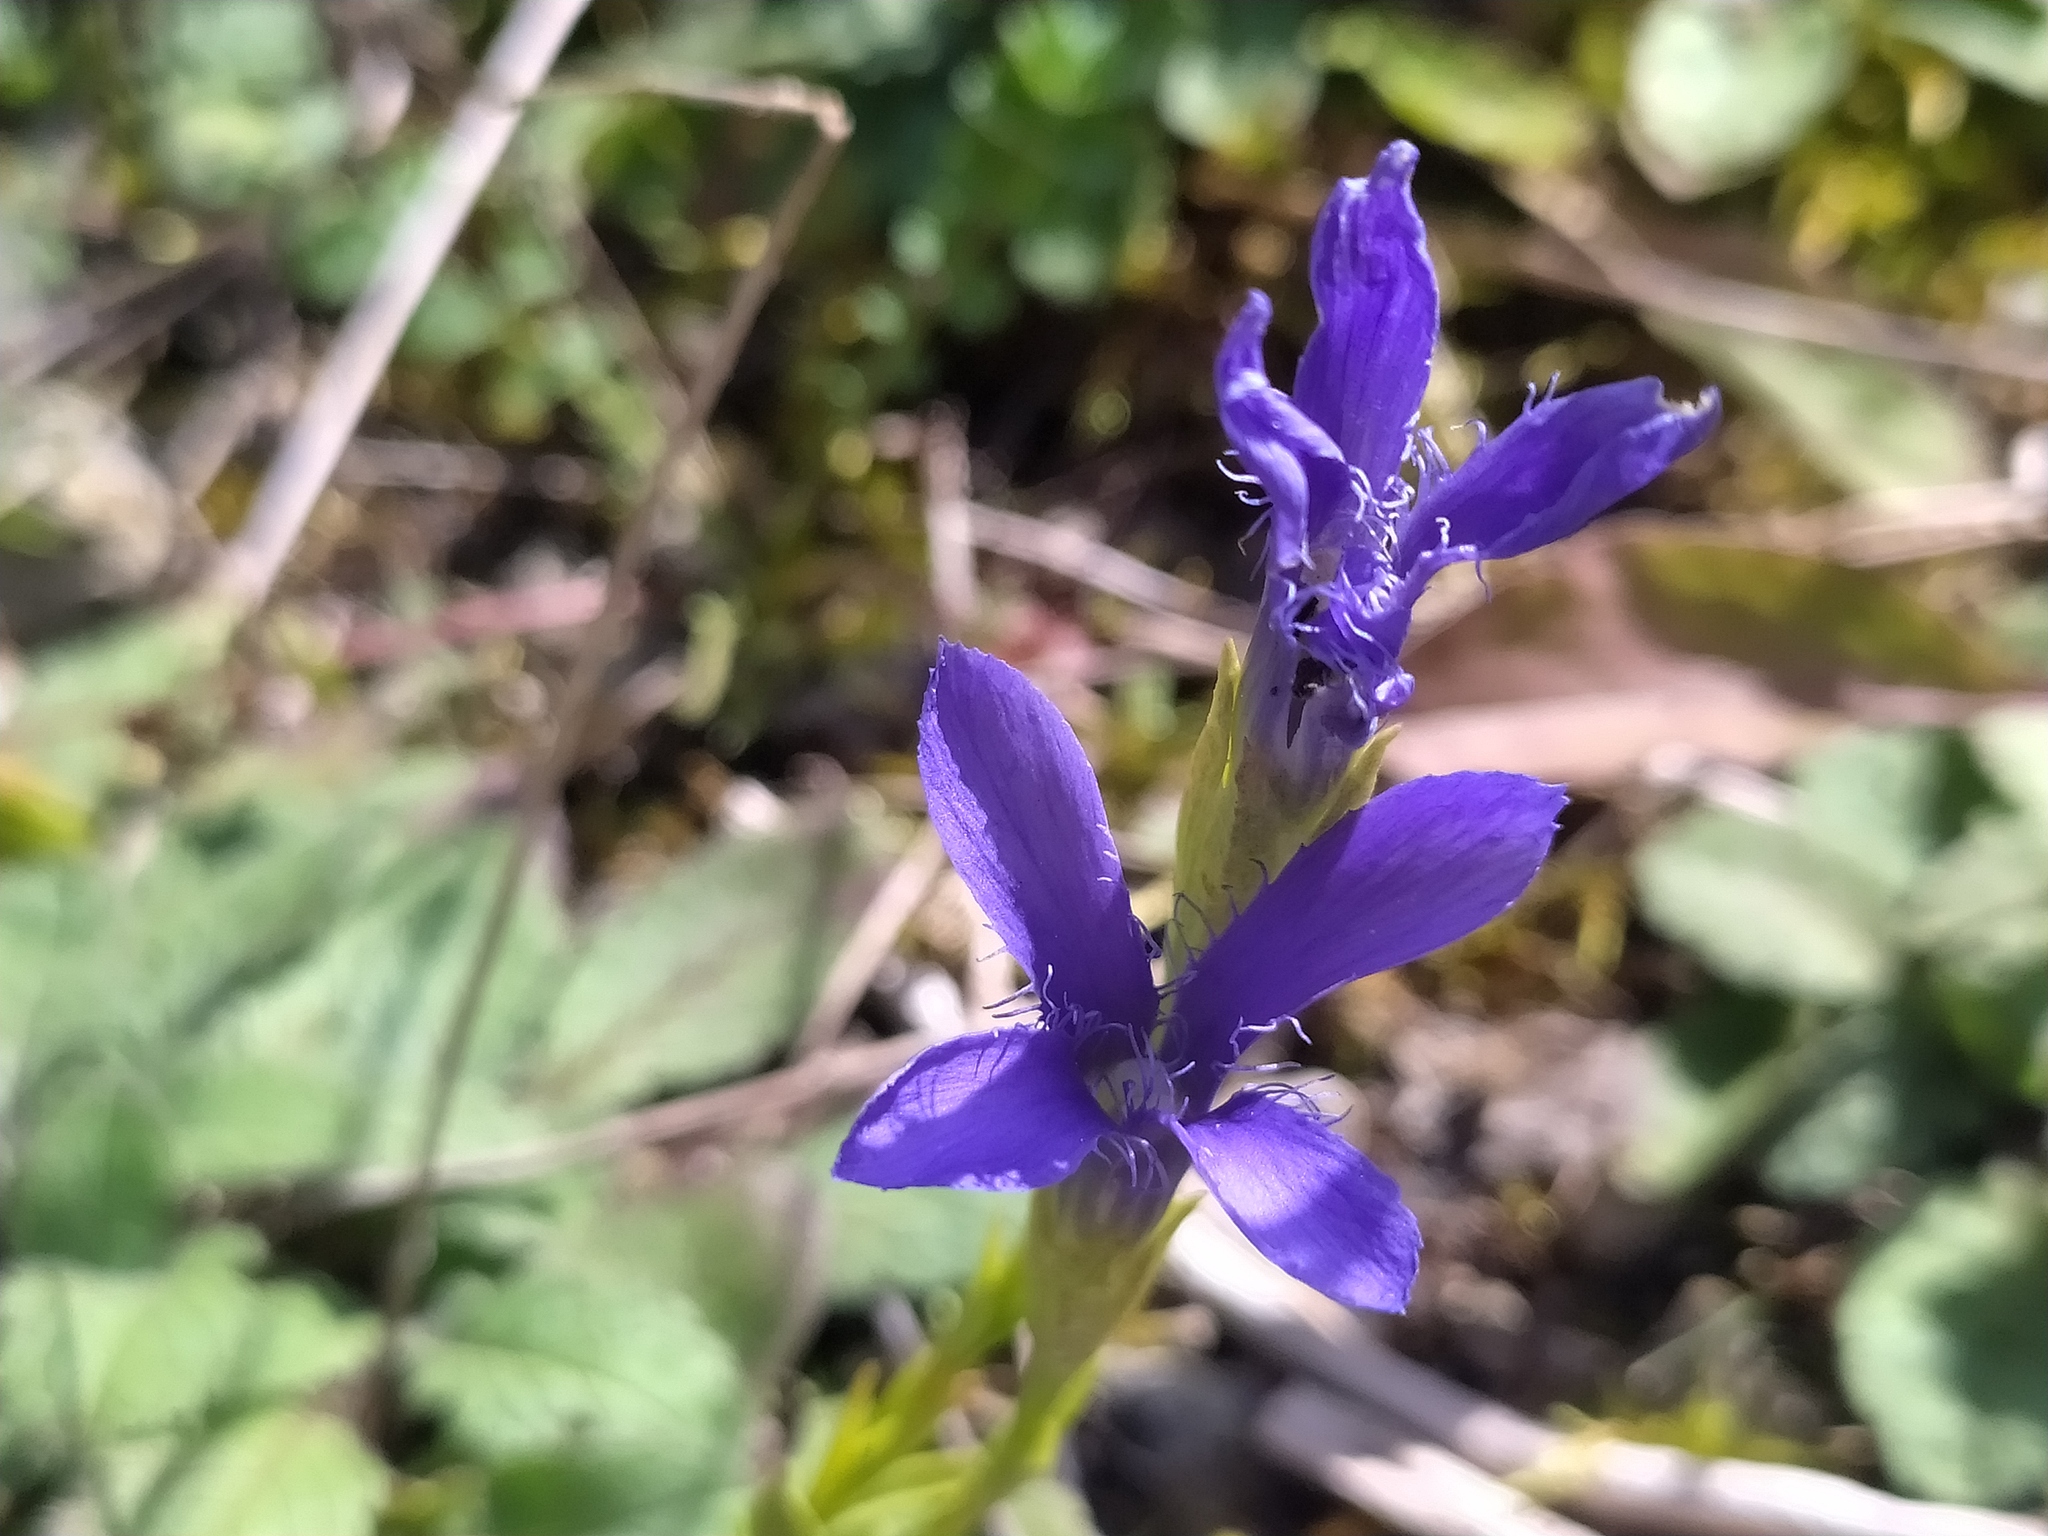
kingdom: Plantae
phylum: Tracheophyta
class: Magnoliopsida
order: Gentianales
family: Gentianaceae
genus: Gentianopsis
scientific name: Gentianopsis ciliata
